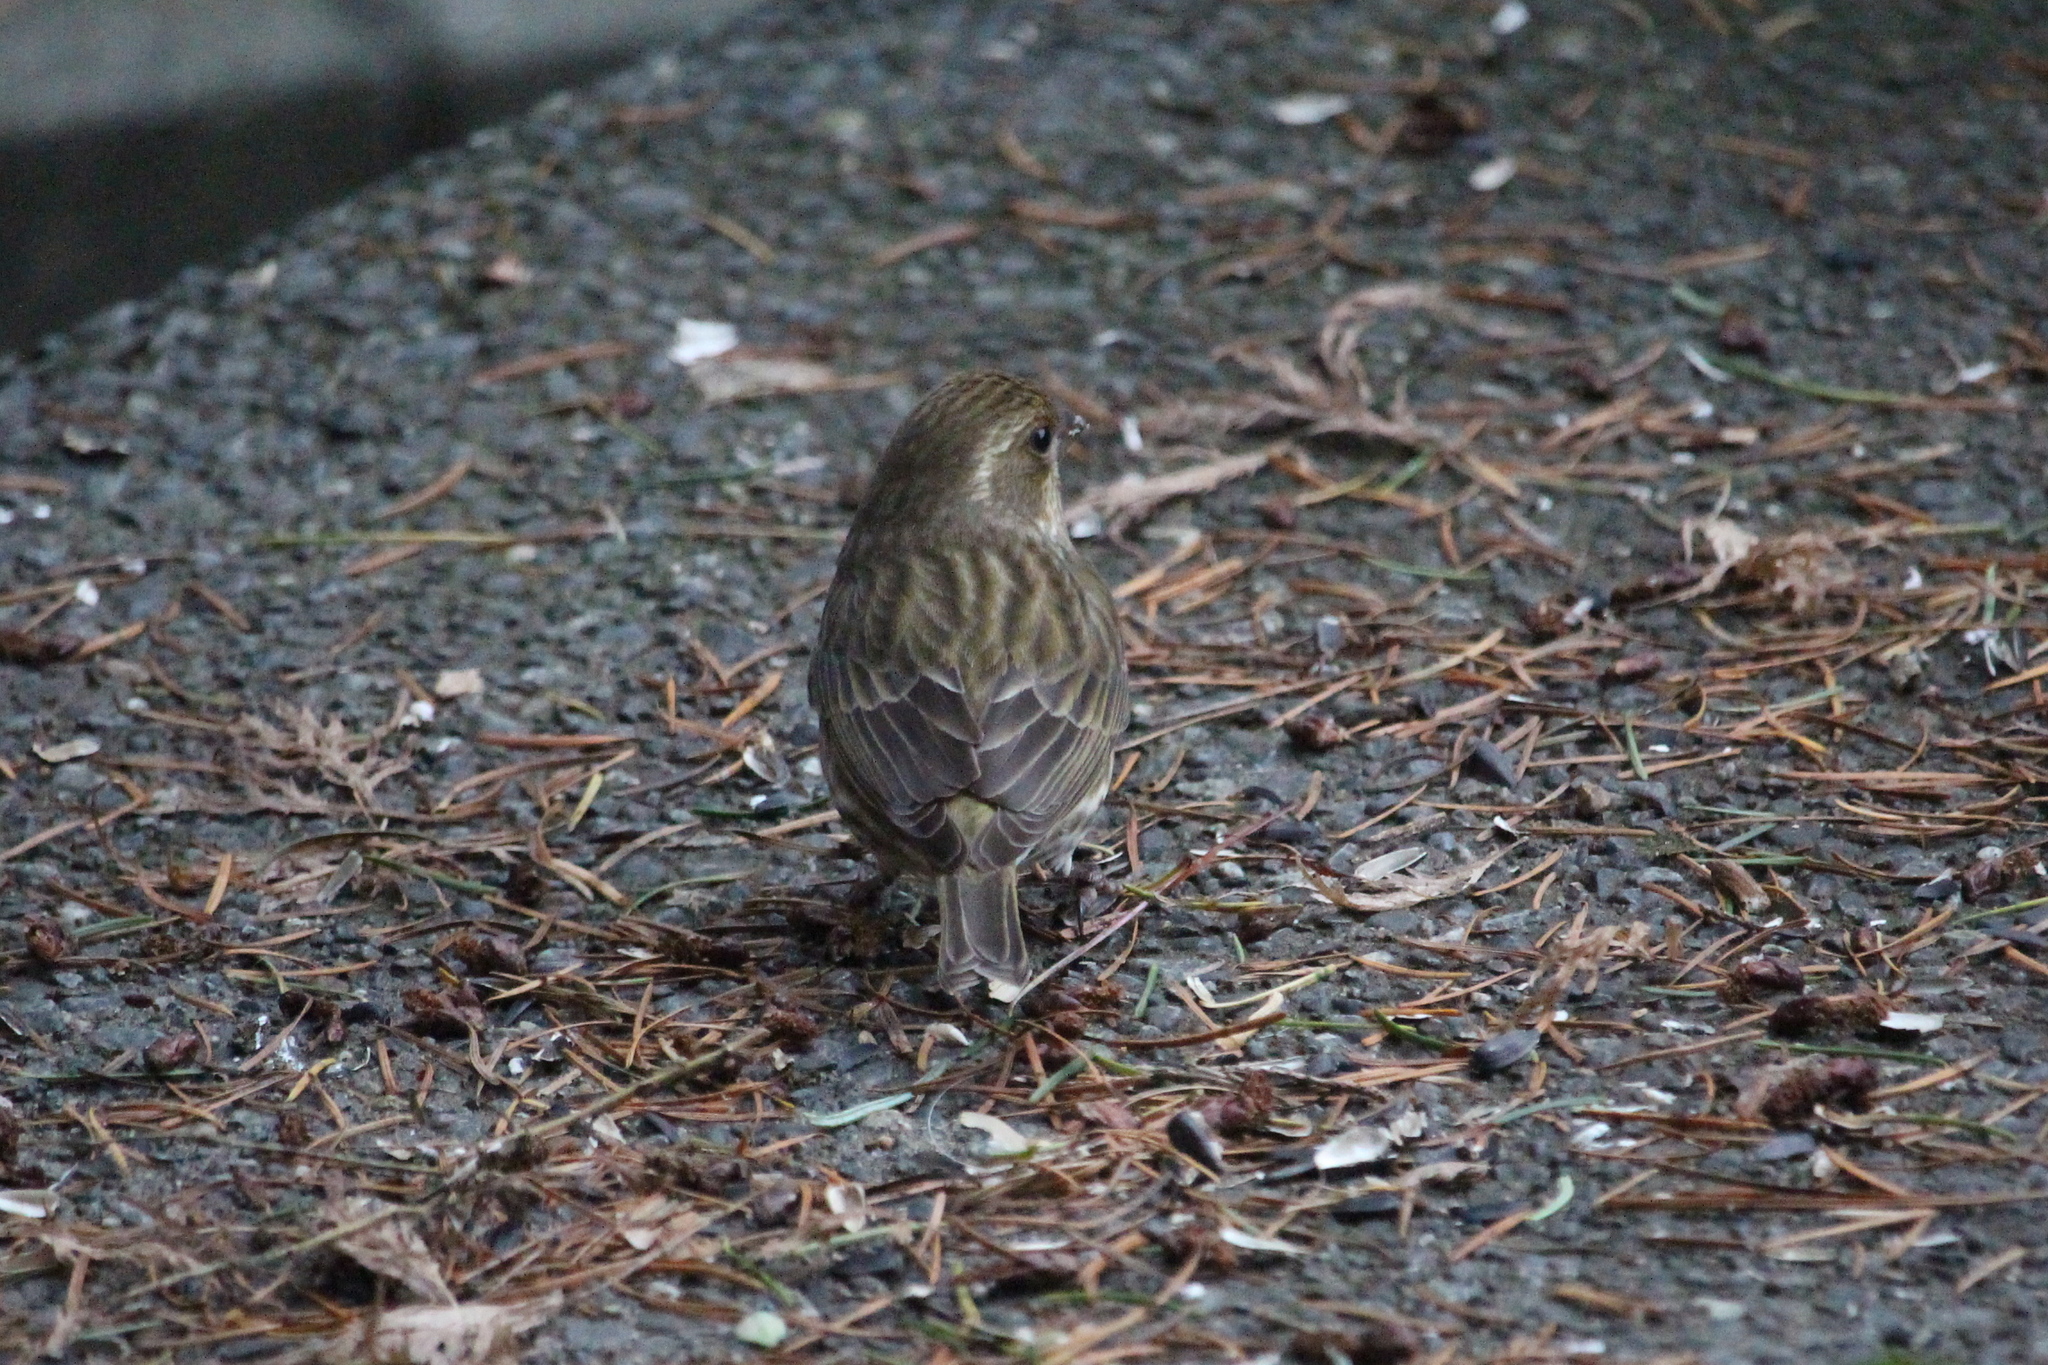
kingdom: Animalia
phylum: Chordata
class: Aves
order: Passeriformes
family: Fringillidae
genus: Haemorhous
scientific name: Haemorhous purpureus
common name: Purple finch
